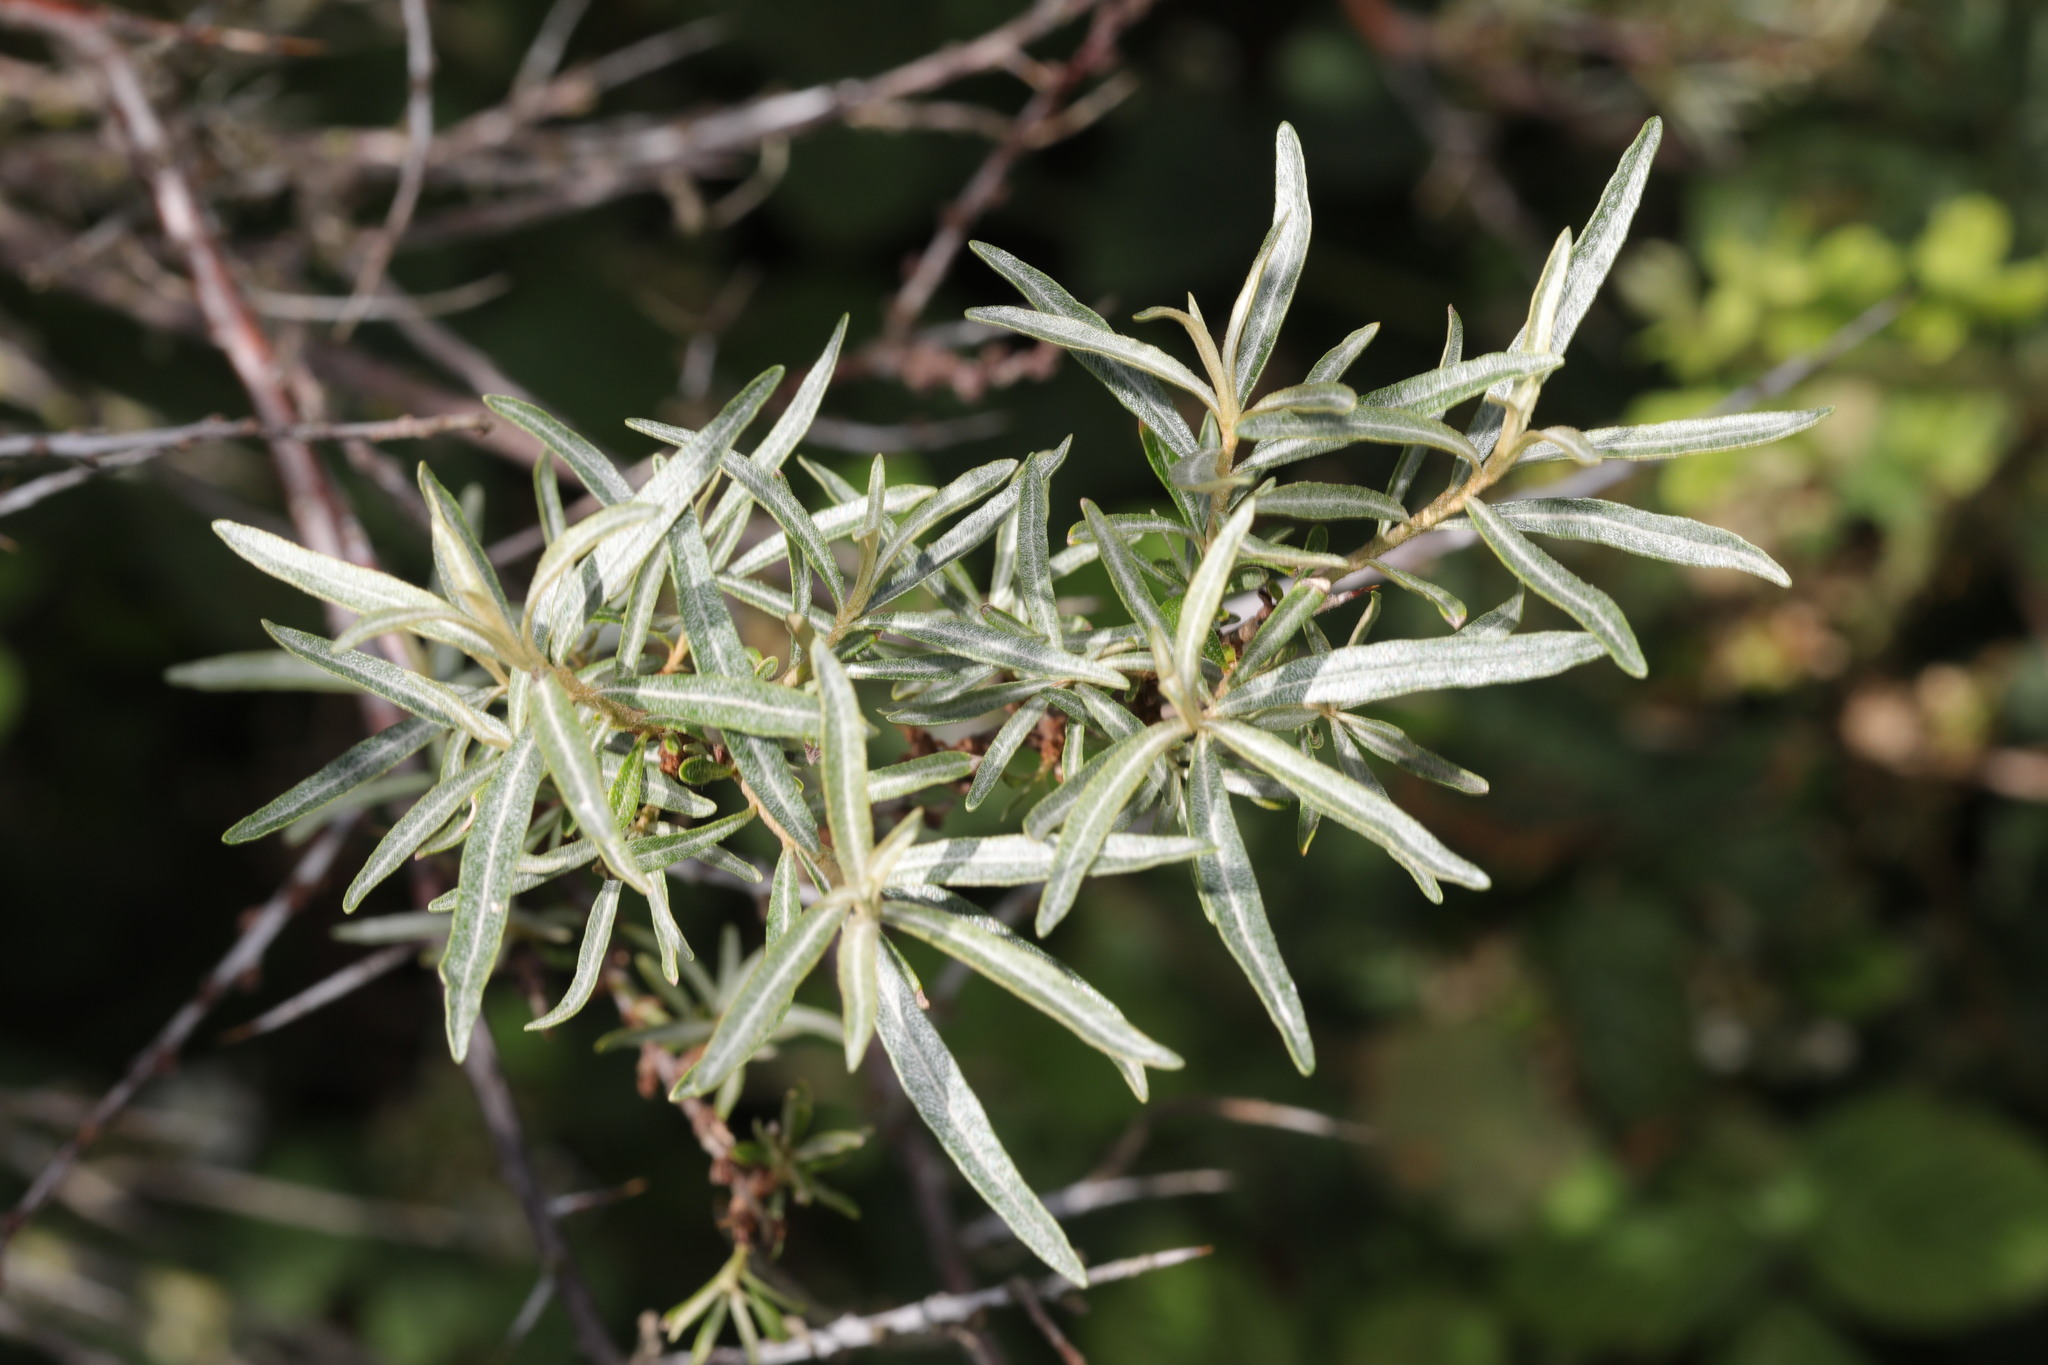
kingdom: Plantae
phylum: Tracheophyta
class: Magnoliopsida
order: Rosales
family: Elaeagnaceae
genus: Hippophae
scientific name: Hippophae rhamnoides
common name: Sea-buckthorn
